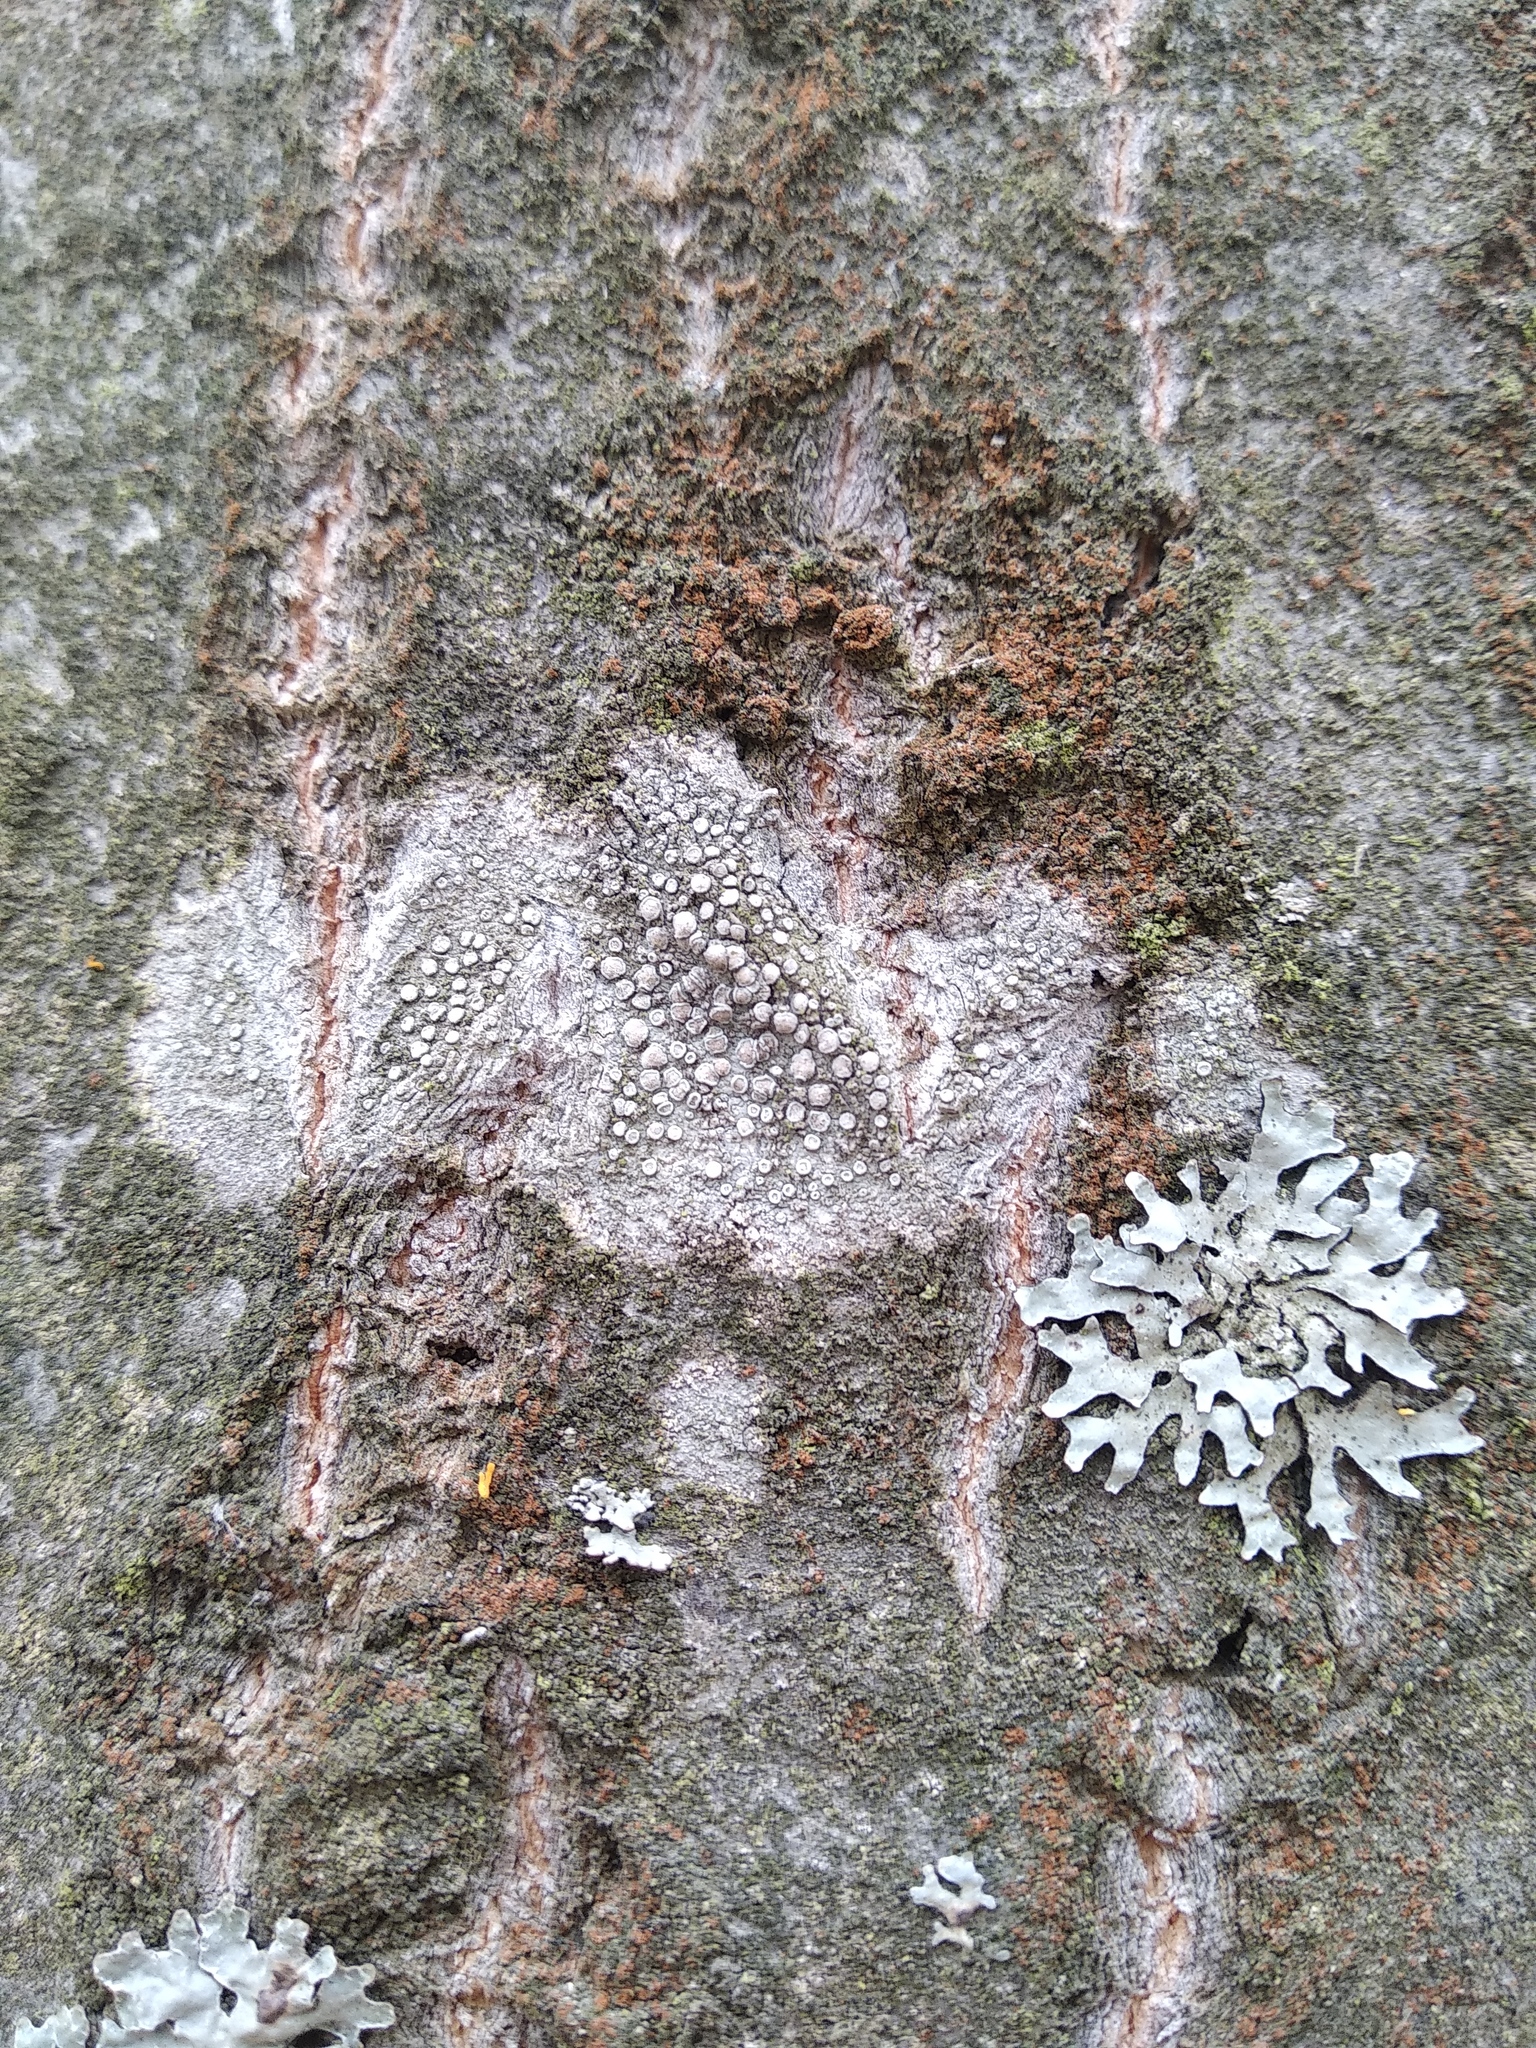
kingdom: Fungi
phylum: Ascomycota
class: Lecanoromycetes
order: Lecanorales
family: Lecanoraceae
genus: Glaucomaria
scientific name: Glaucomaria carpinea
